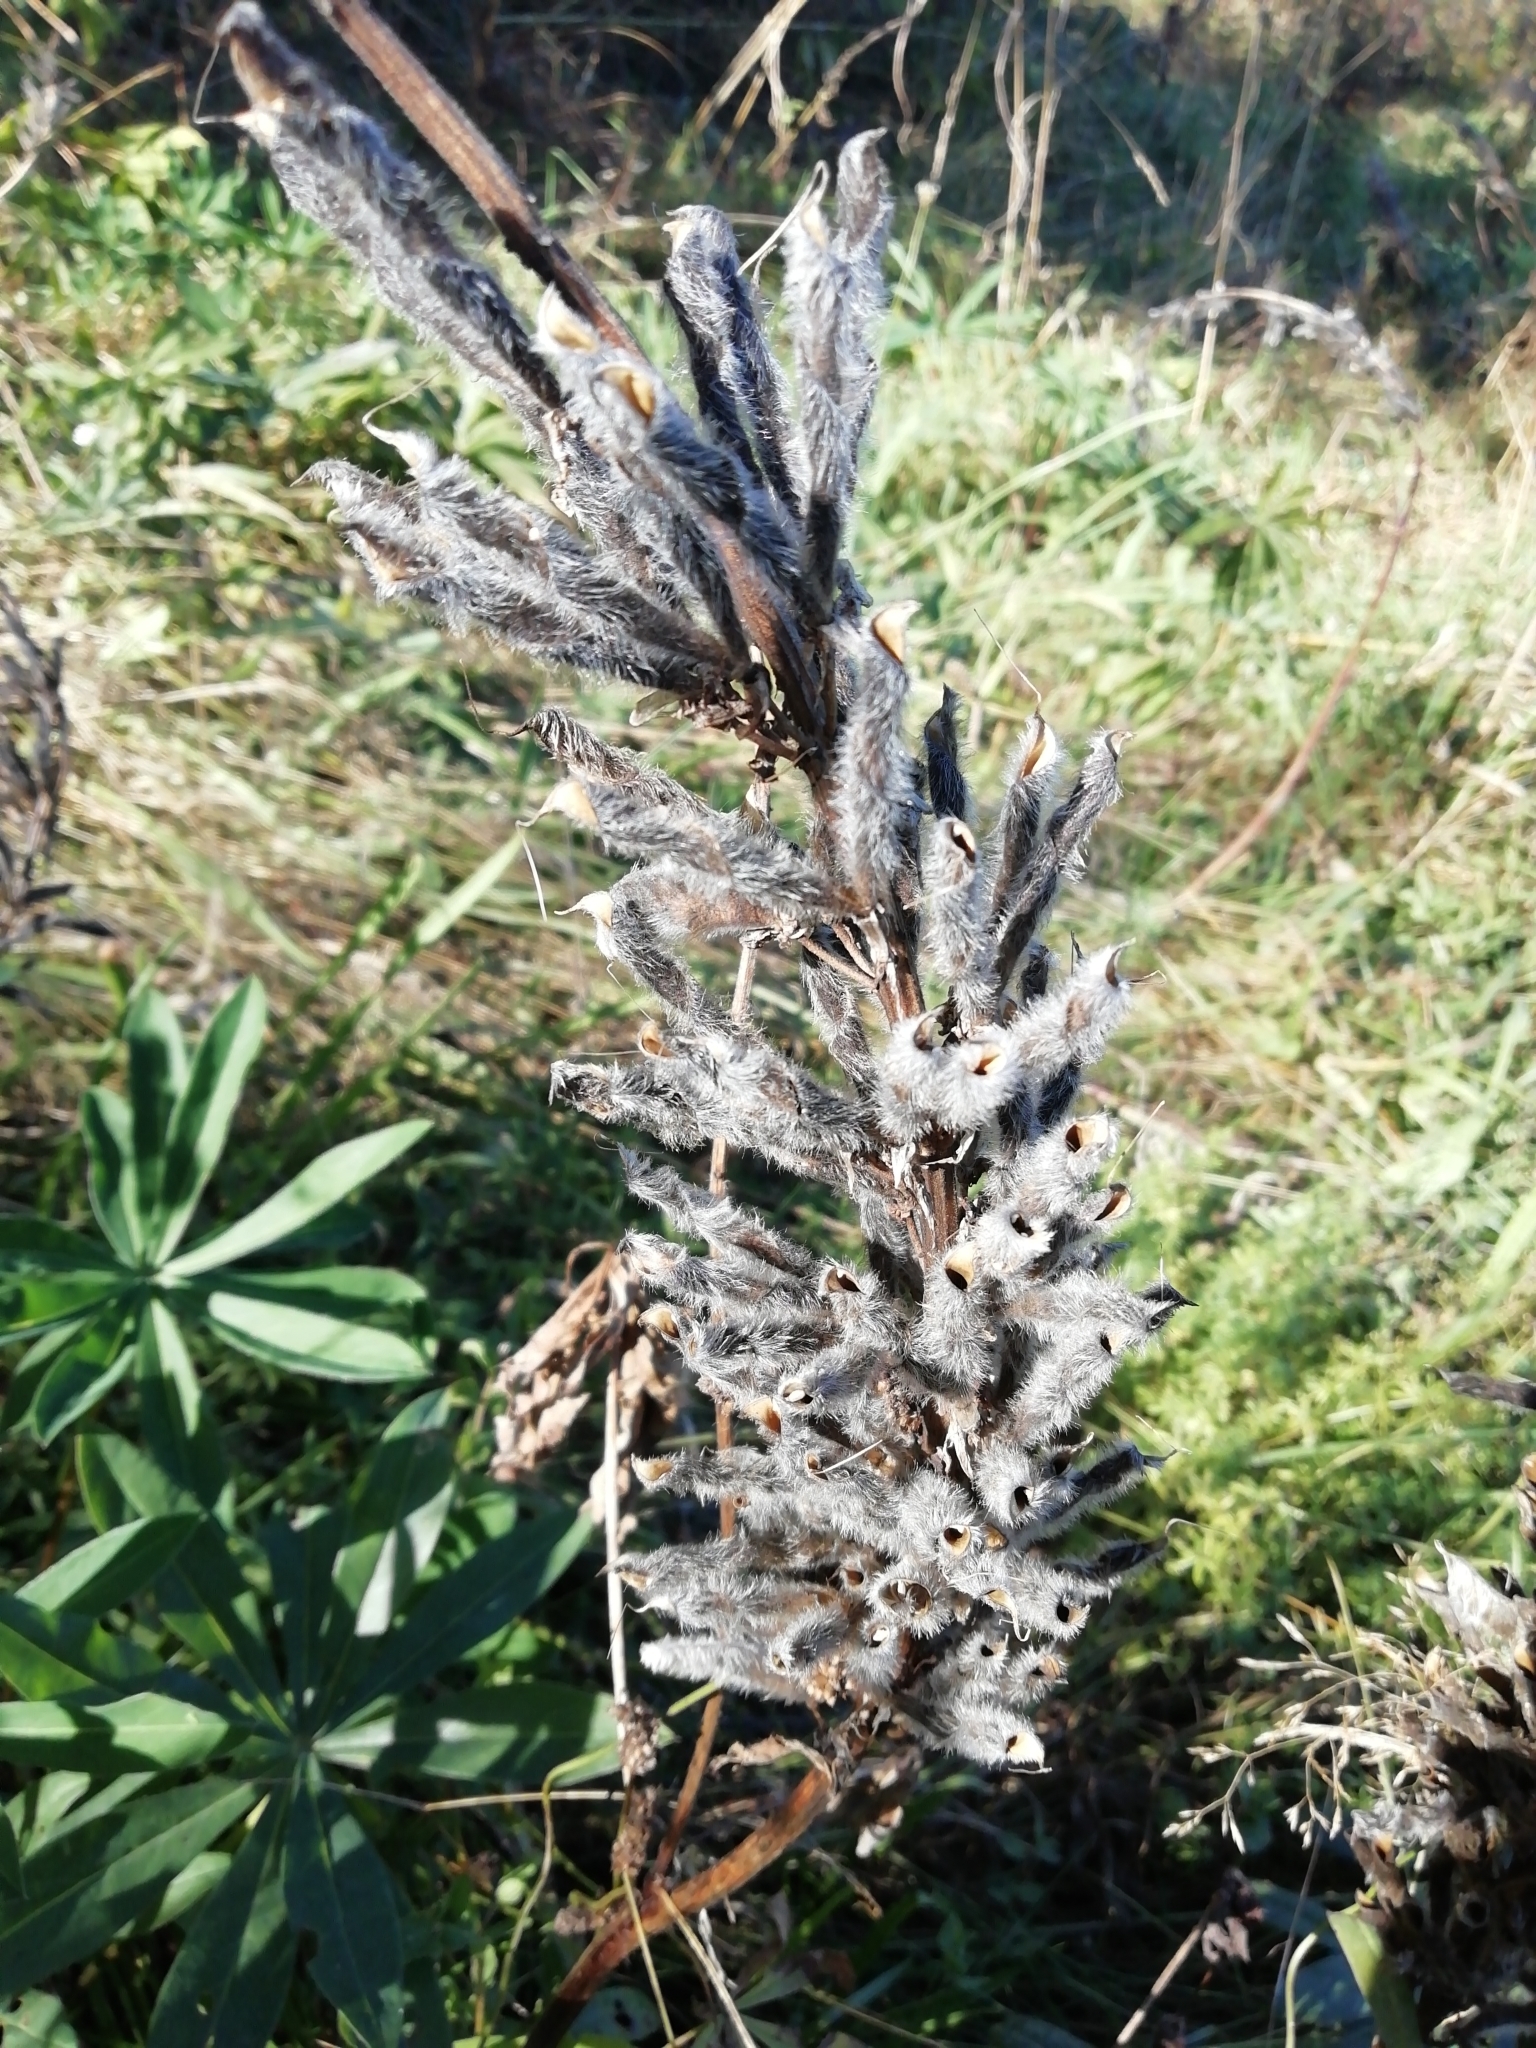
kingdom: Plantae
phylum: Tracheophyta
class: Magnoliopsida
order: Fabales
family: Fabaceae
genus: Lupinus
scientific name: Lupinus polyphyllus
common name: Garden lupin
